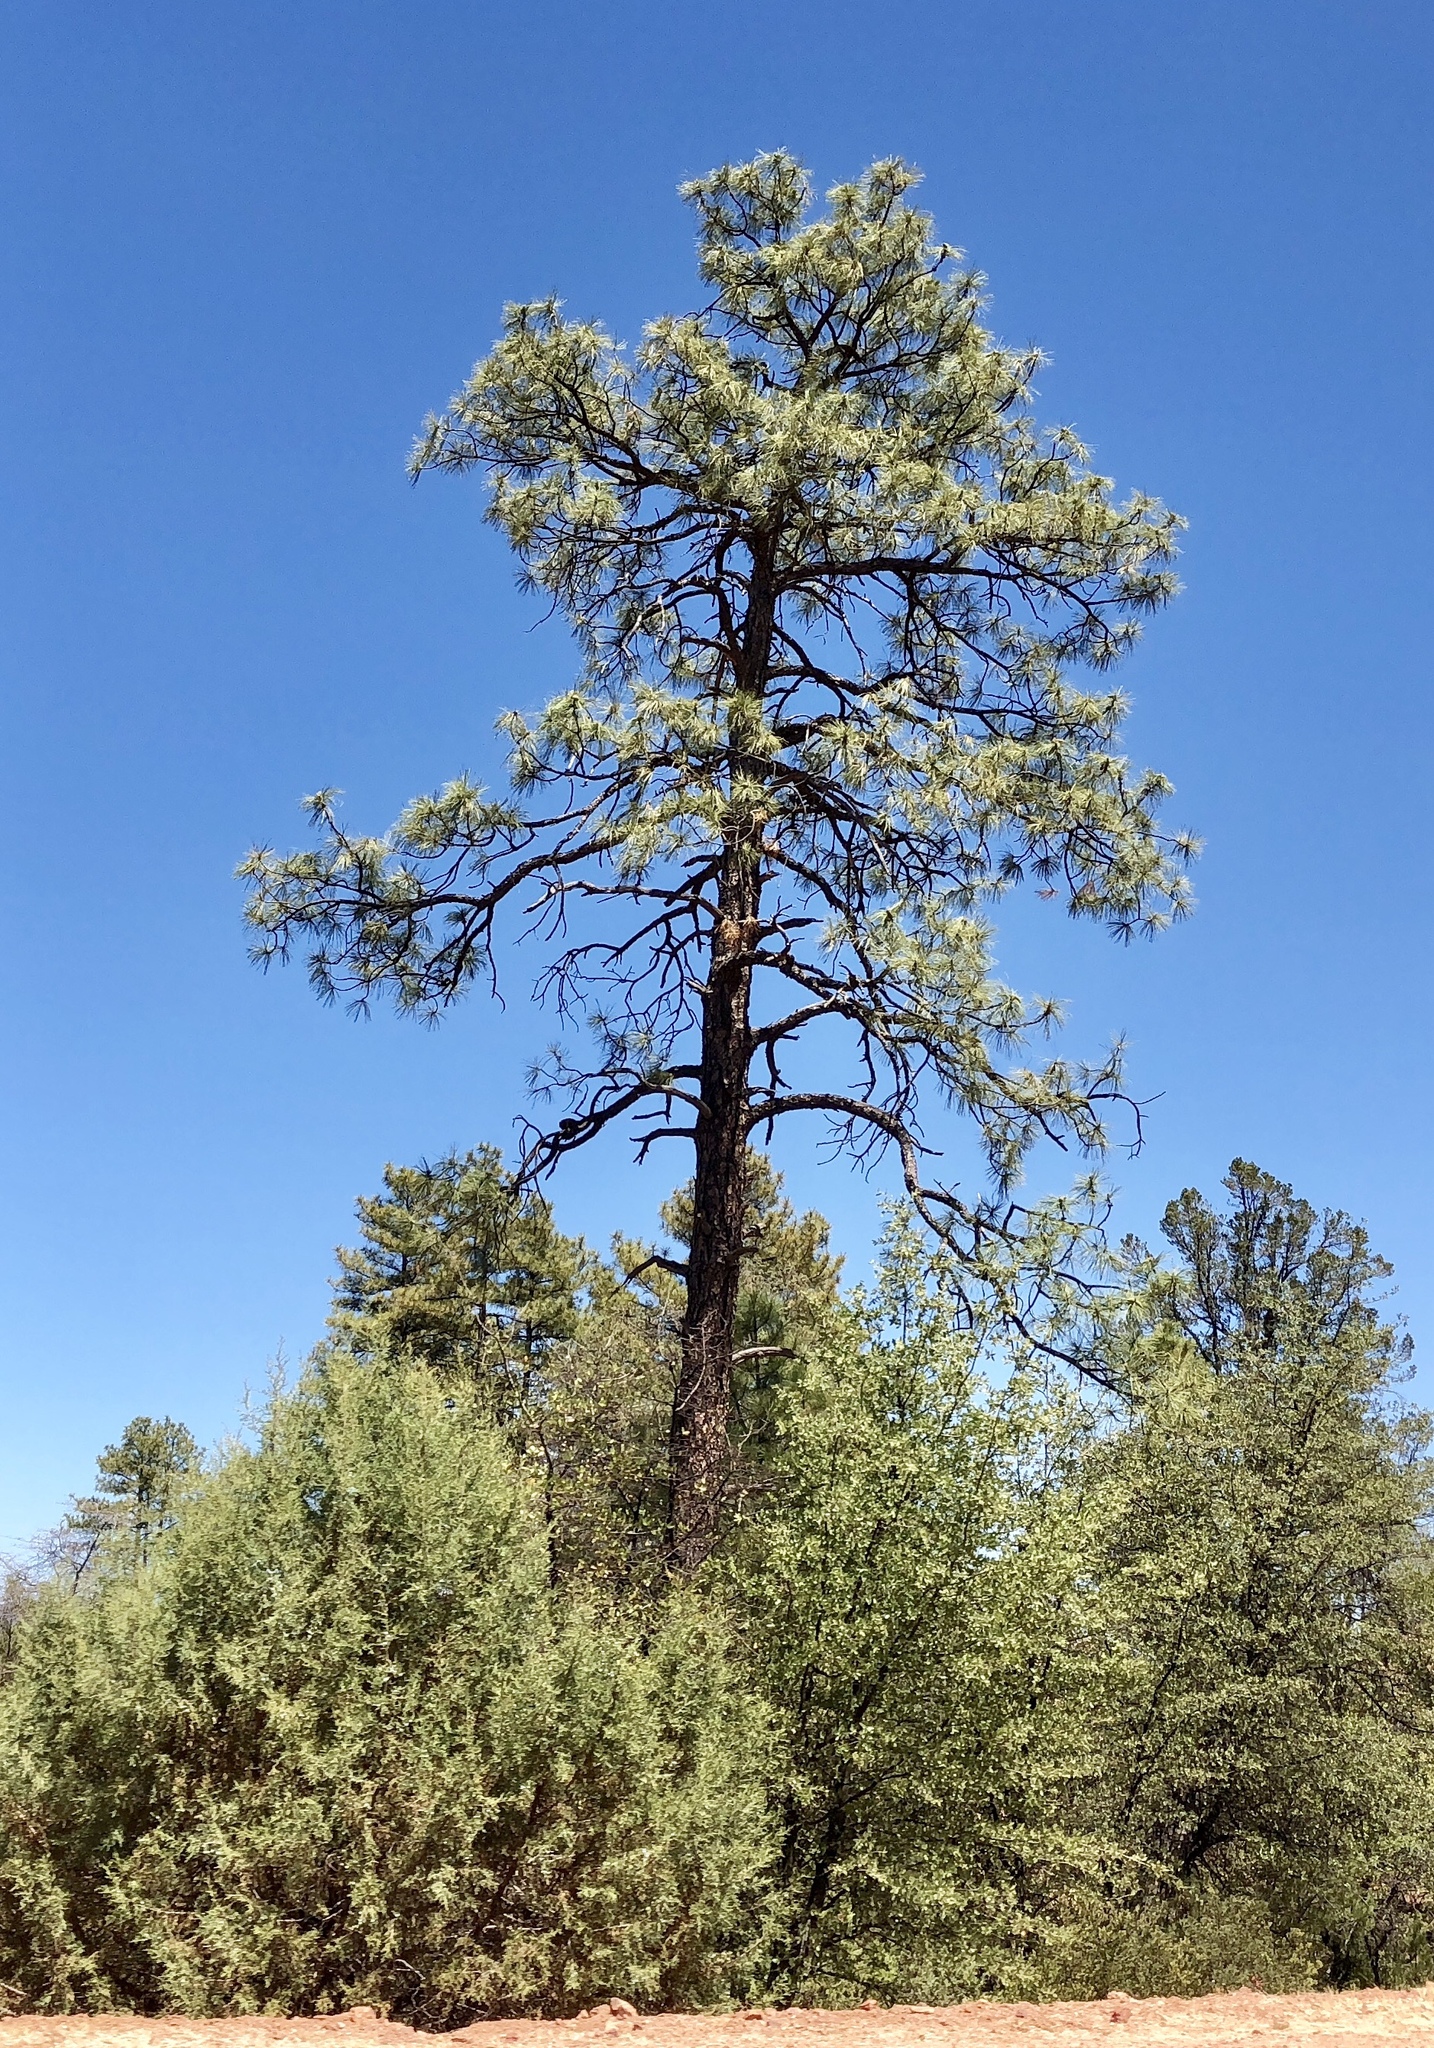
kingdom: Plantae
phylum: Tracheophyta
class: Pinopsida
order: Pinales
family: Pinaceae
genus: Pinus
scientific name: Pinus ponderosa
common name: Western yellow-pine
